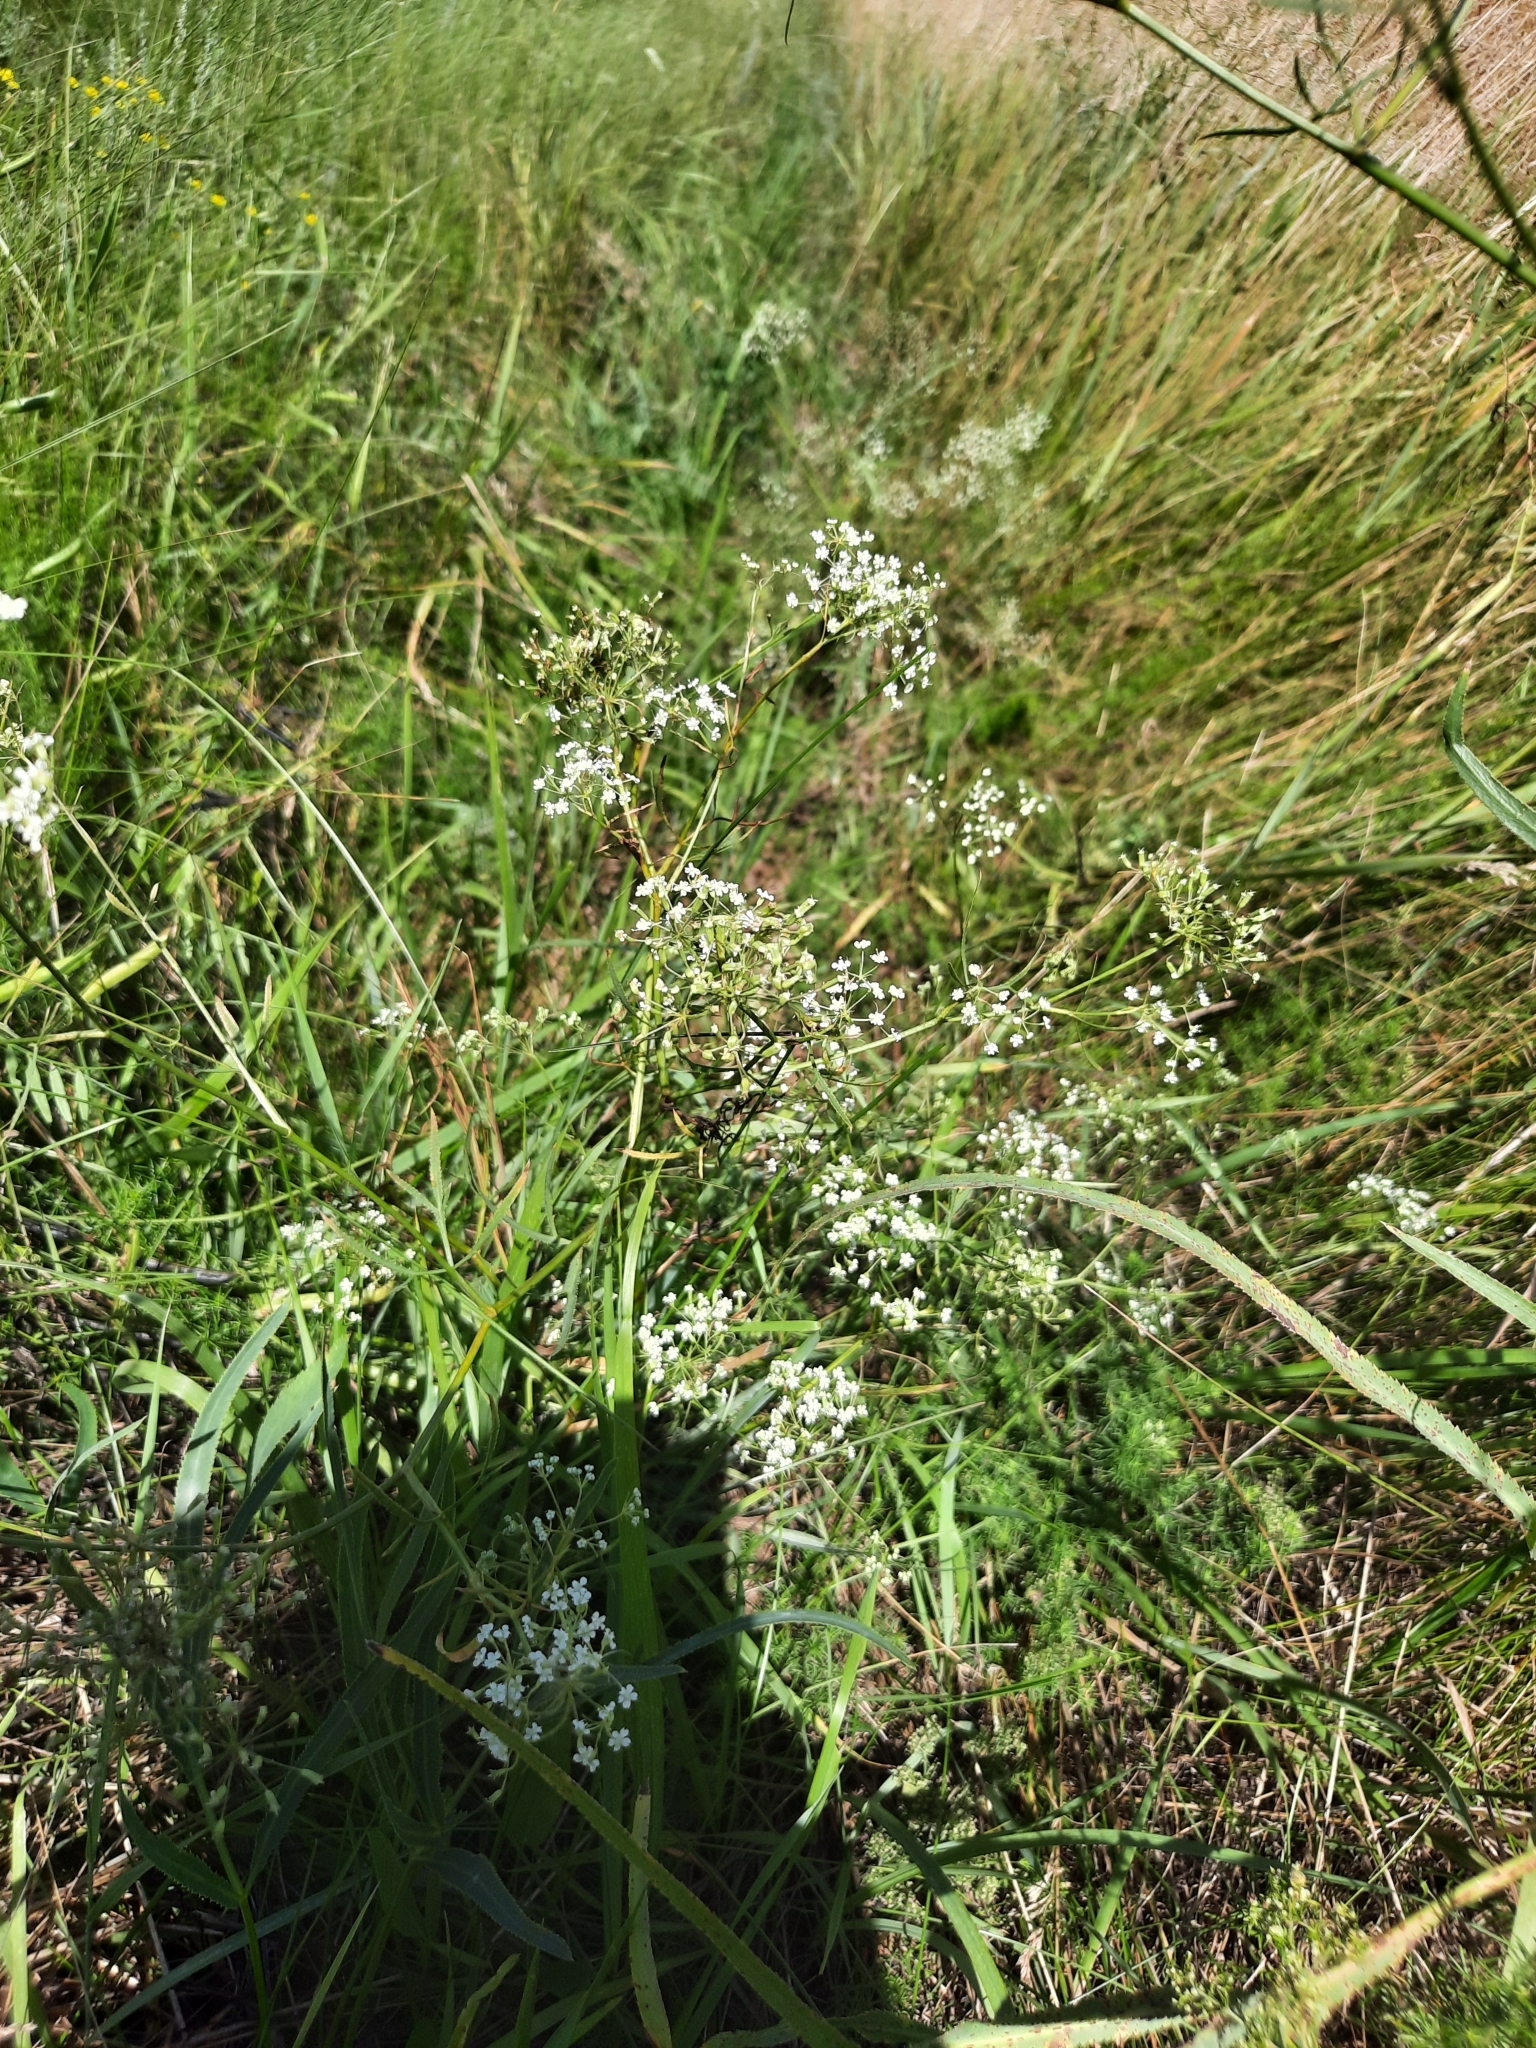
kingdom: Plantae
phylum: Tracheophyta
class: Magnoliopsida
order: Apiales
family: Apiaceae
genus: Falcaria
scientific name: Falcaria vulgaris
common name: Longleaf
